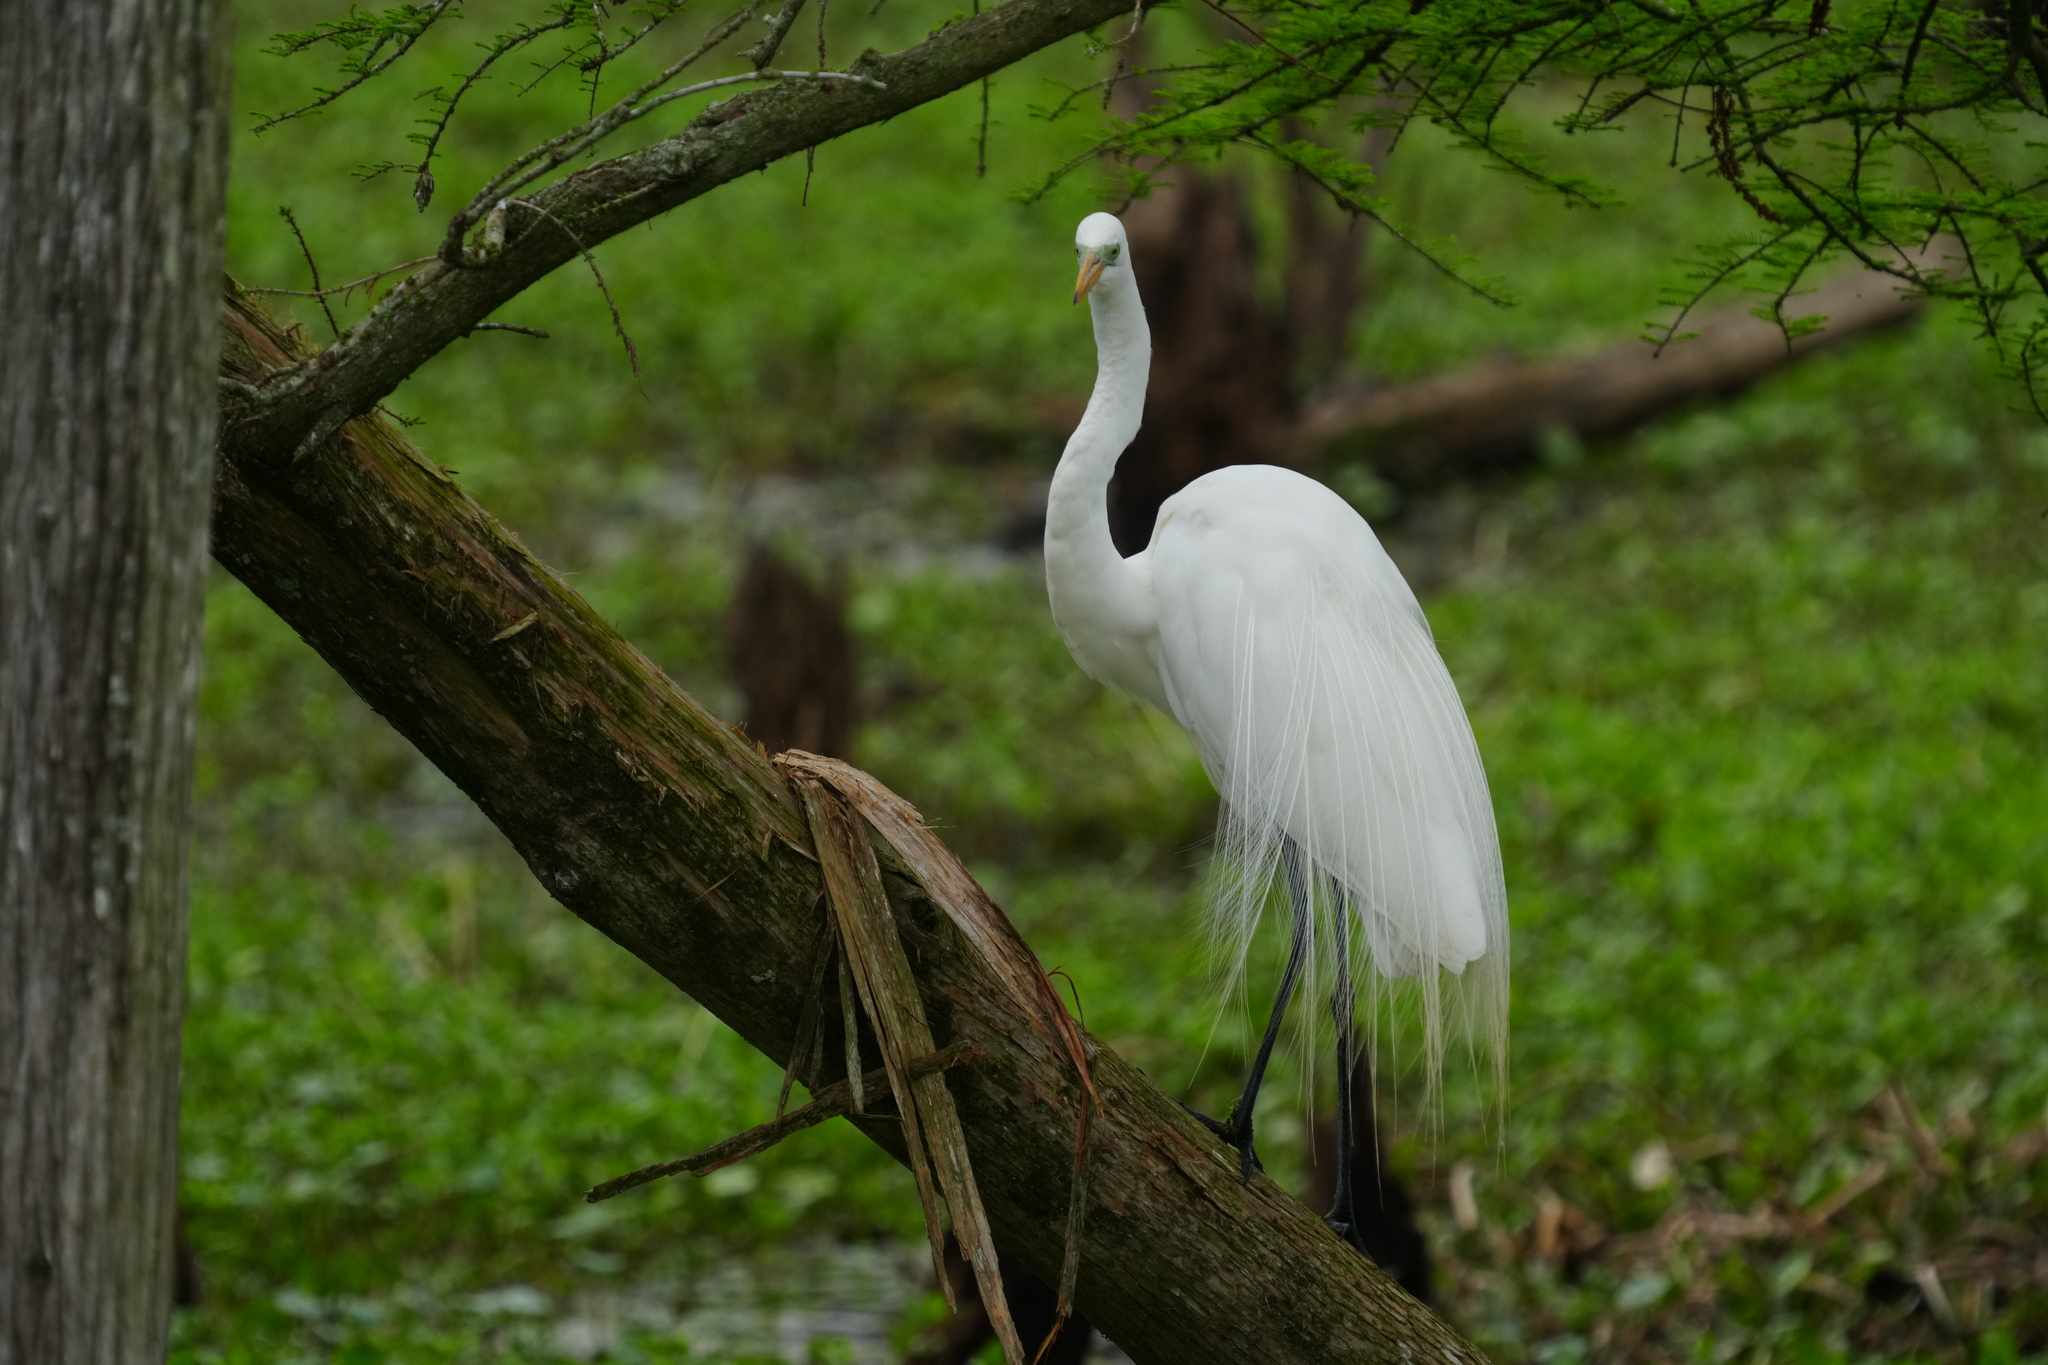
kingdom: Animalia
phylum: Chordata
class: Aves
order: Pelecaniformes
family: Ardeidae
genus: Ardea
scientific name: Ardea alba
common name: Great egret
